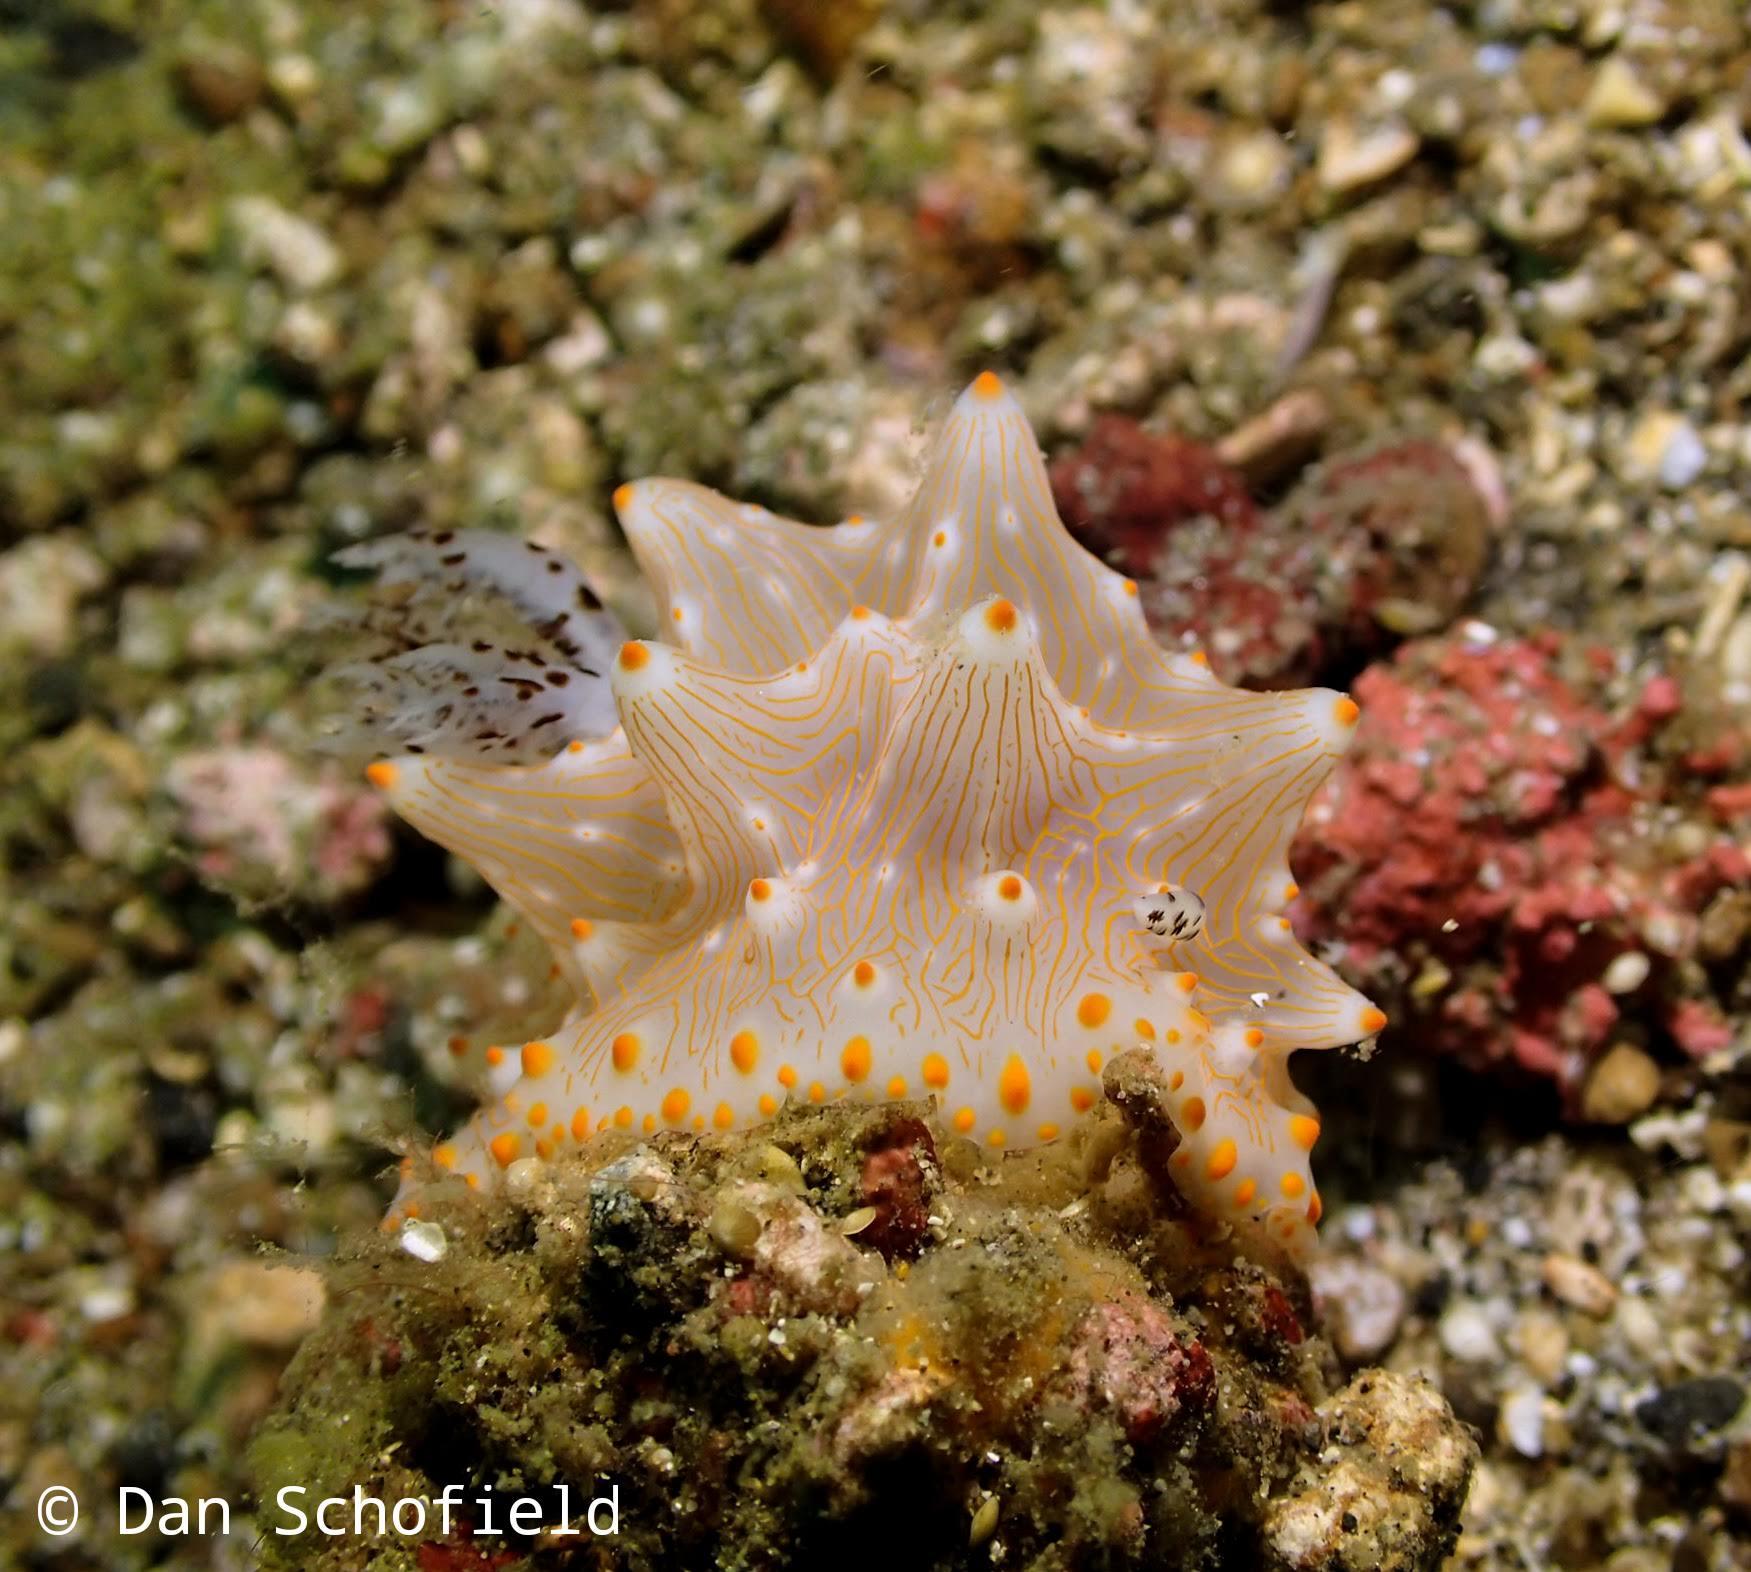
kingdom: Animalia
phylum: Mollusca
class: Gastropoda
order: Nudibranchia
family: Discodorididae
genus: Halgerda
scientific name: Halgerda batangas
